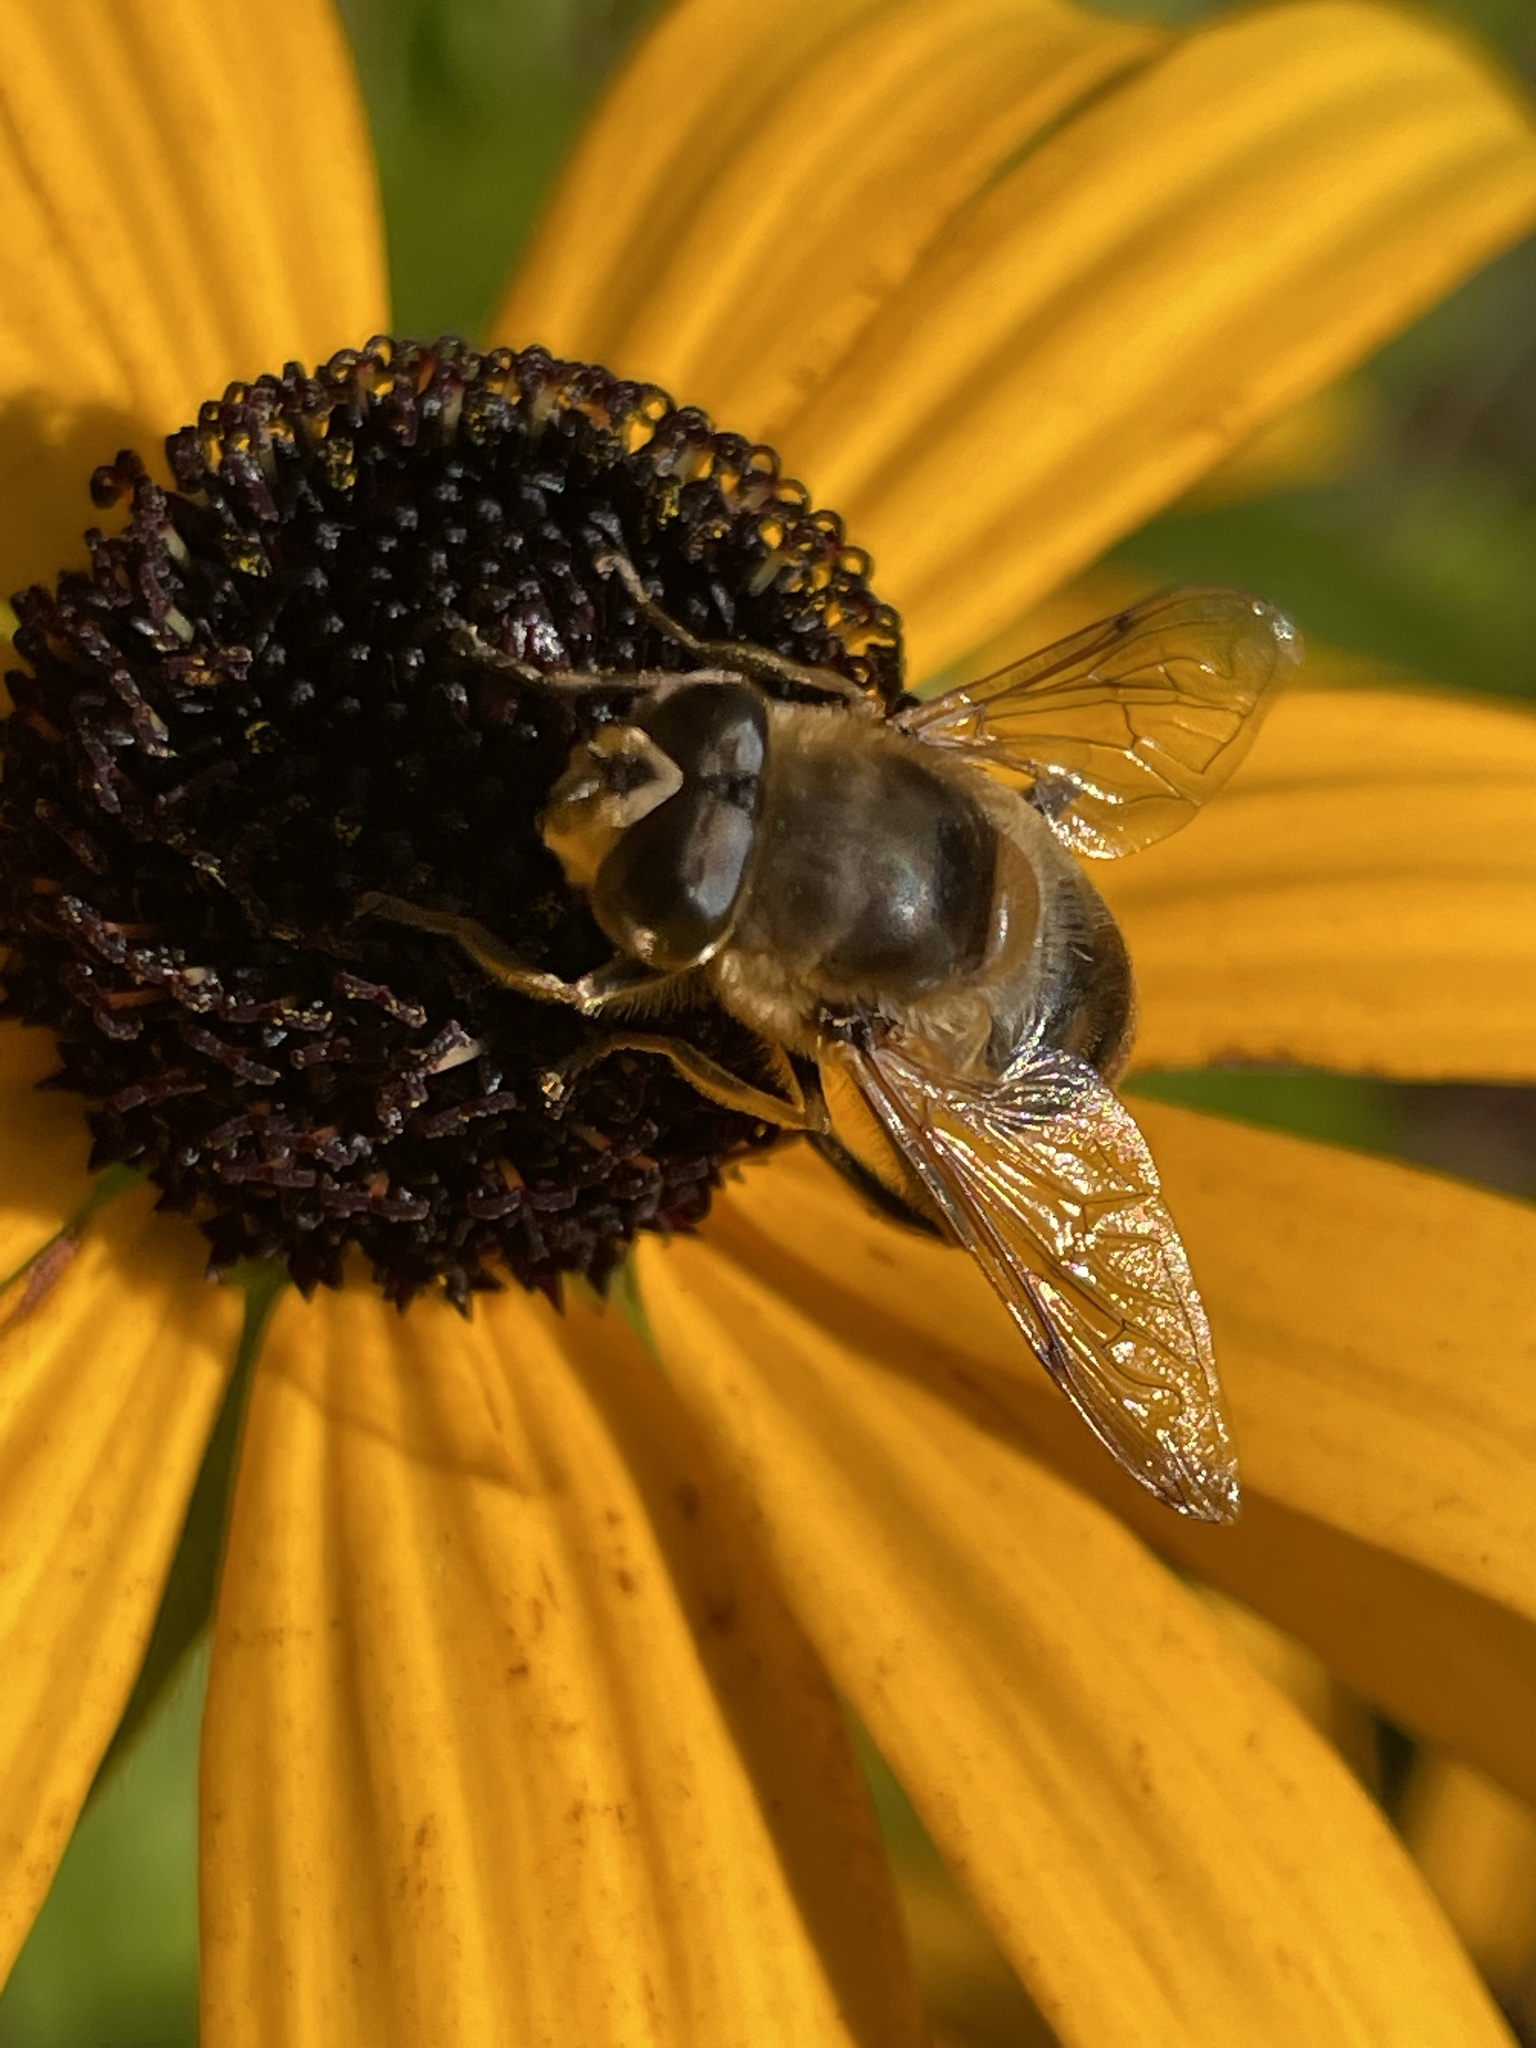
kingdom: Animalia
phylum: Arthropoda
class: Insecta
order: Diptera
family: Syrphidae
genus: Eristalis
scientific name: Eristalis tenax
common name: Drone fly
